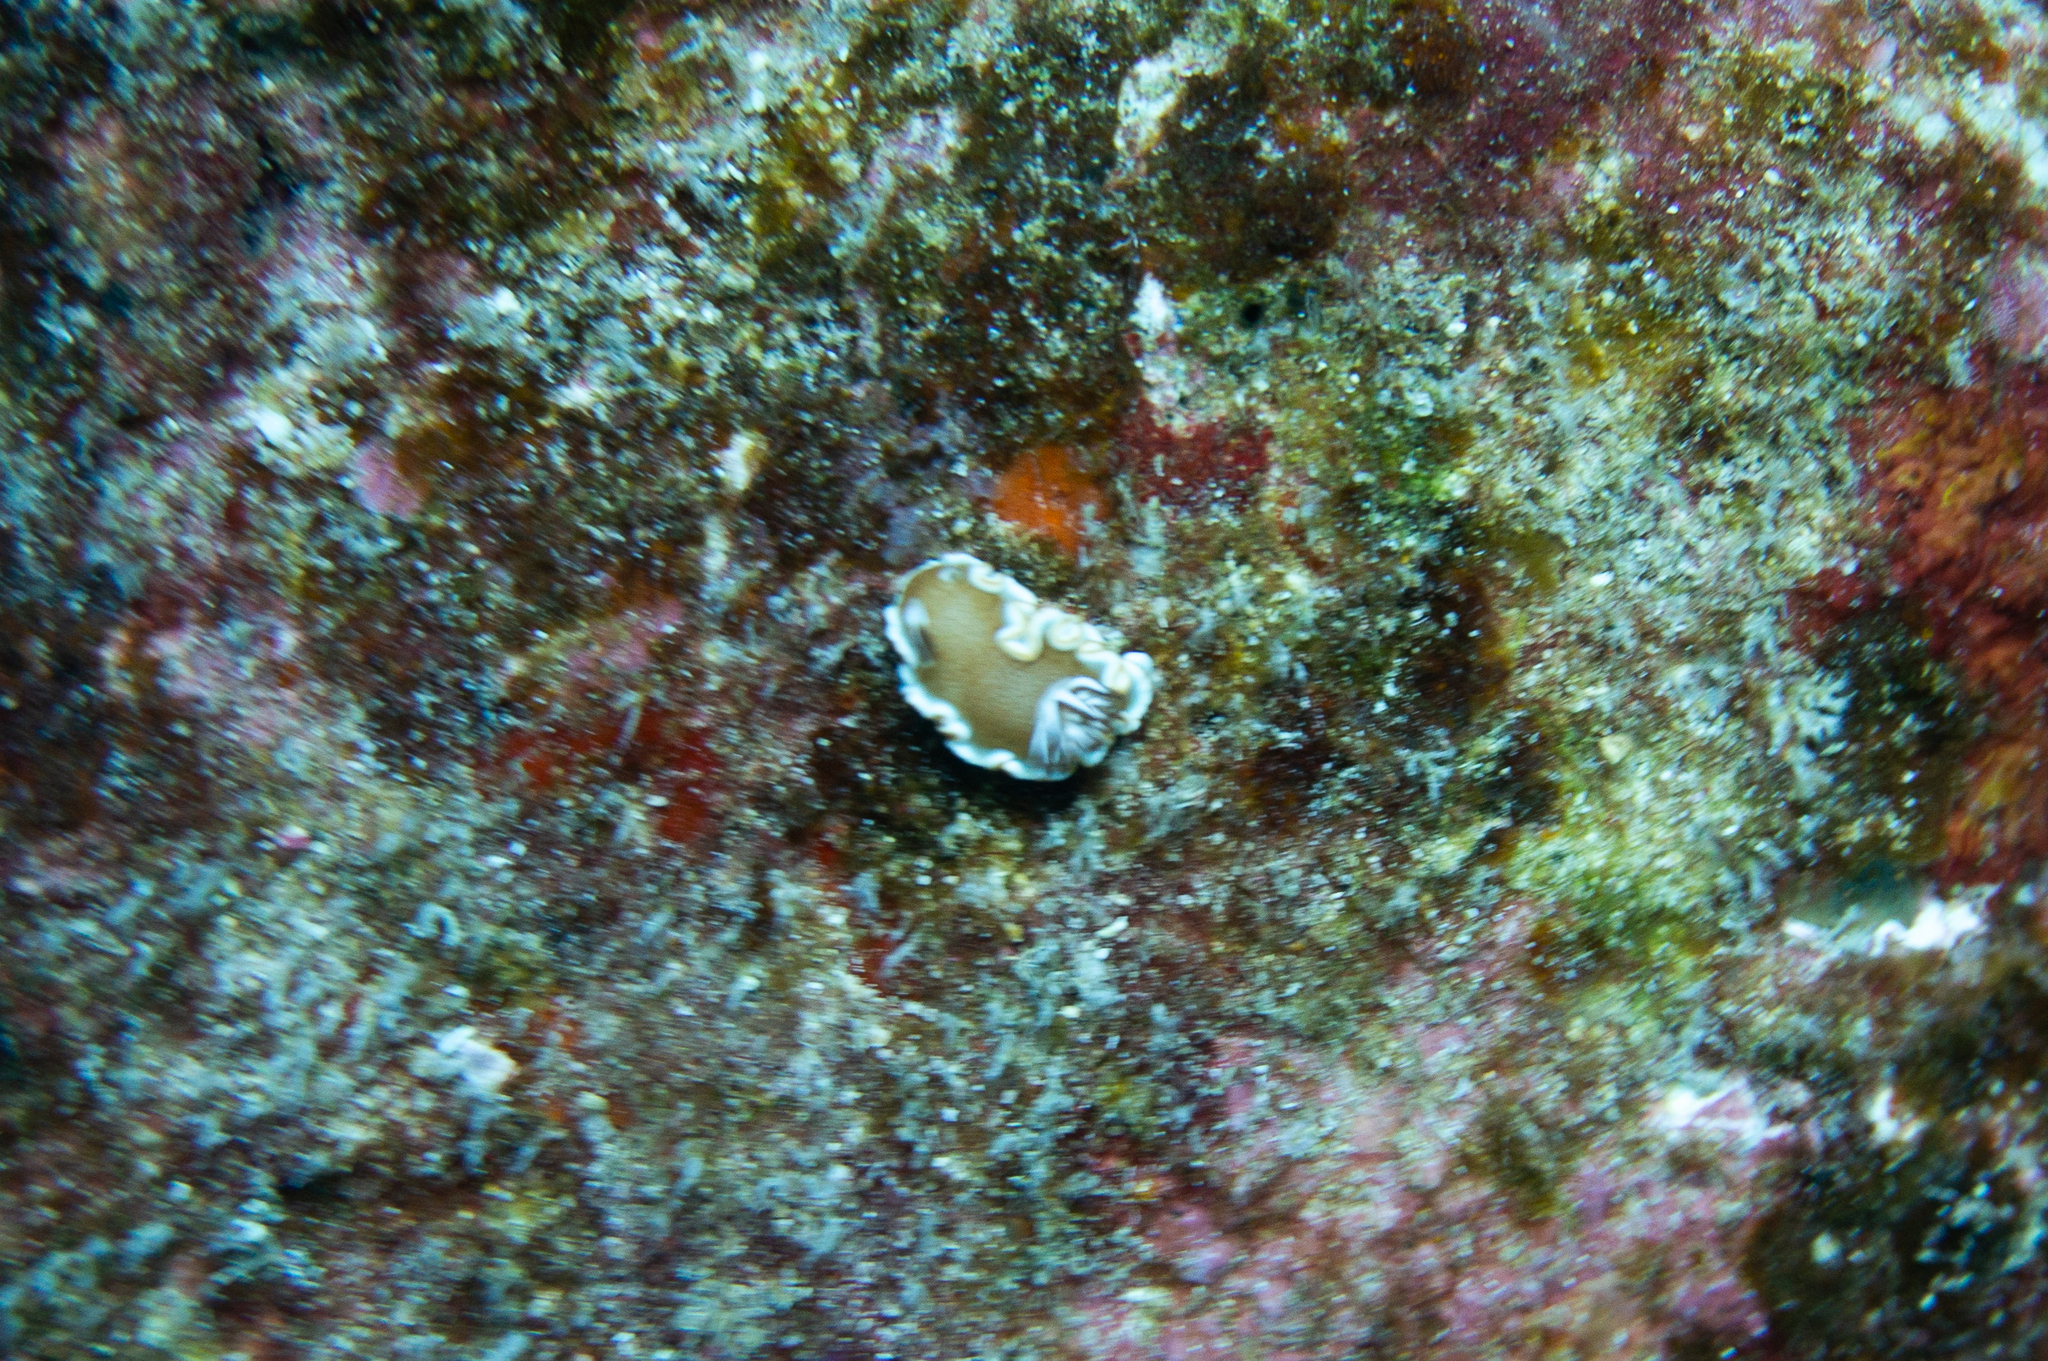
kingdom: Animalia
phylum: Mollusca
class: Gastropoda
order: Nudibranchia
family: Chromodorididae
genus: Glossodoris
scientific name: Glossodoris rufomarginata
